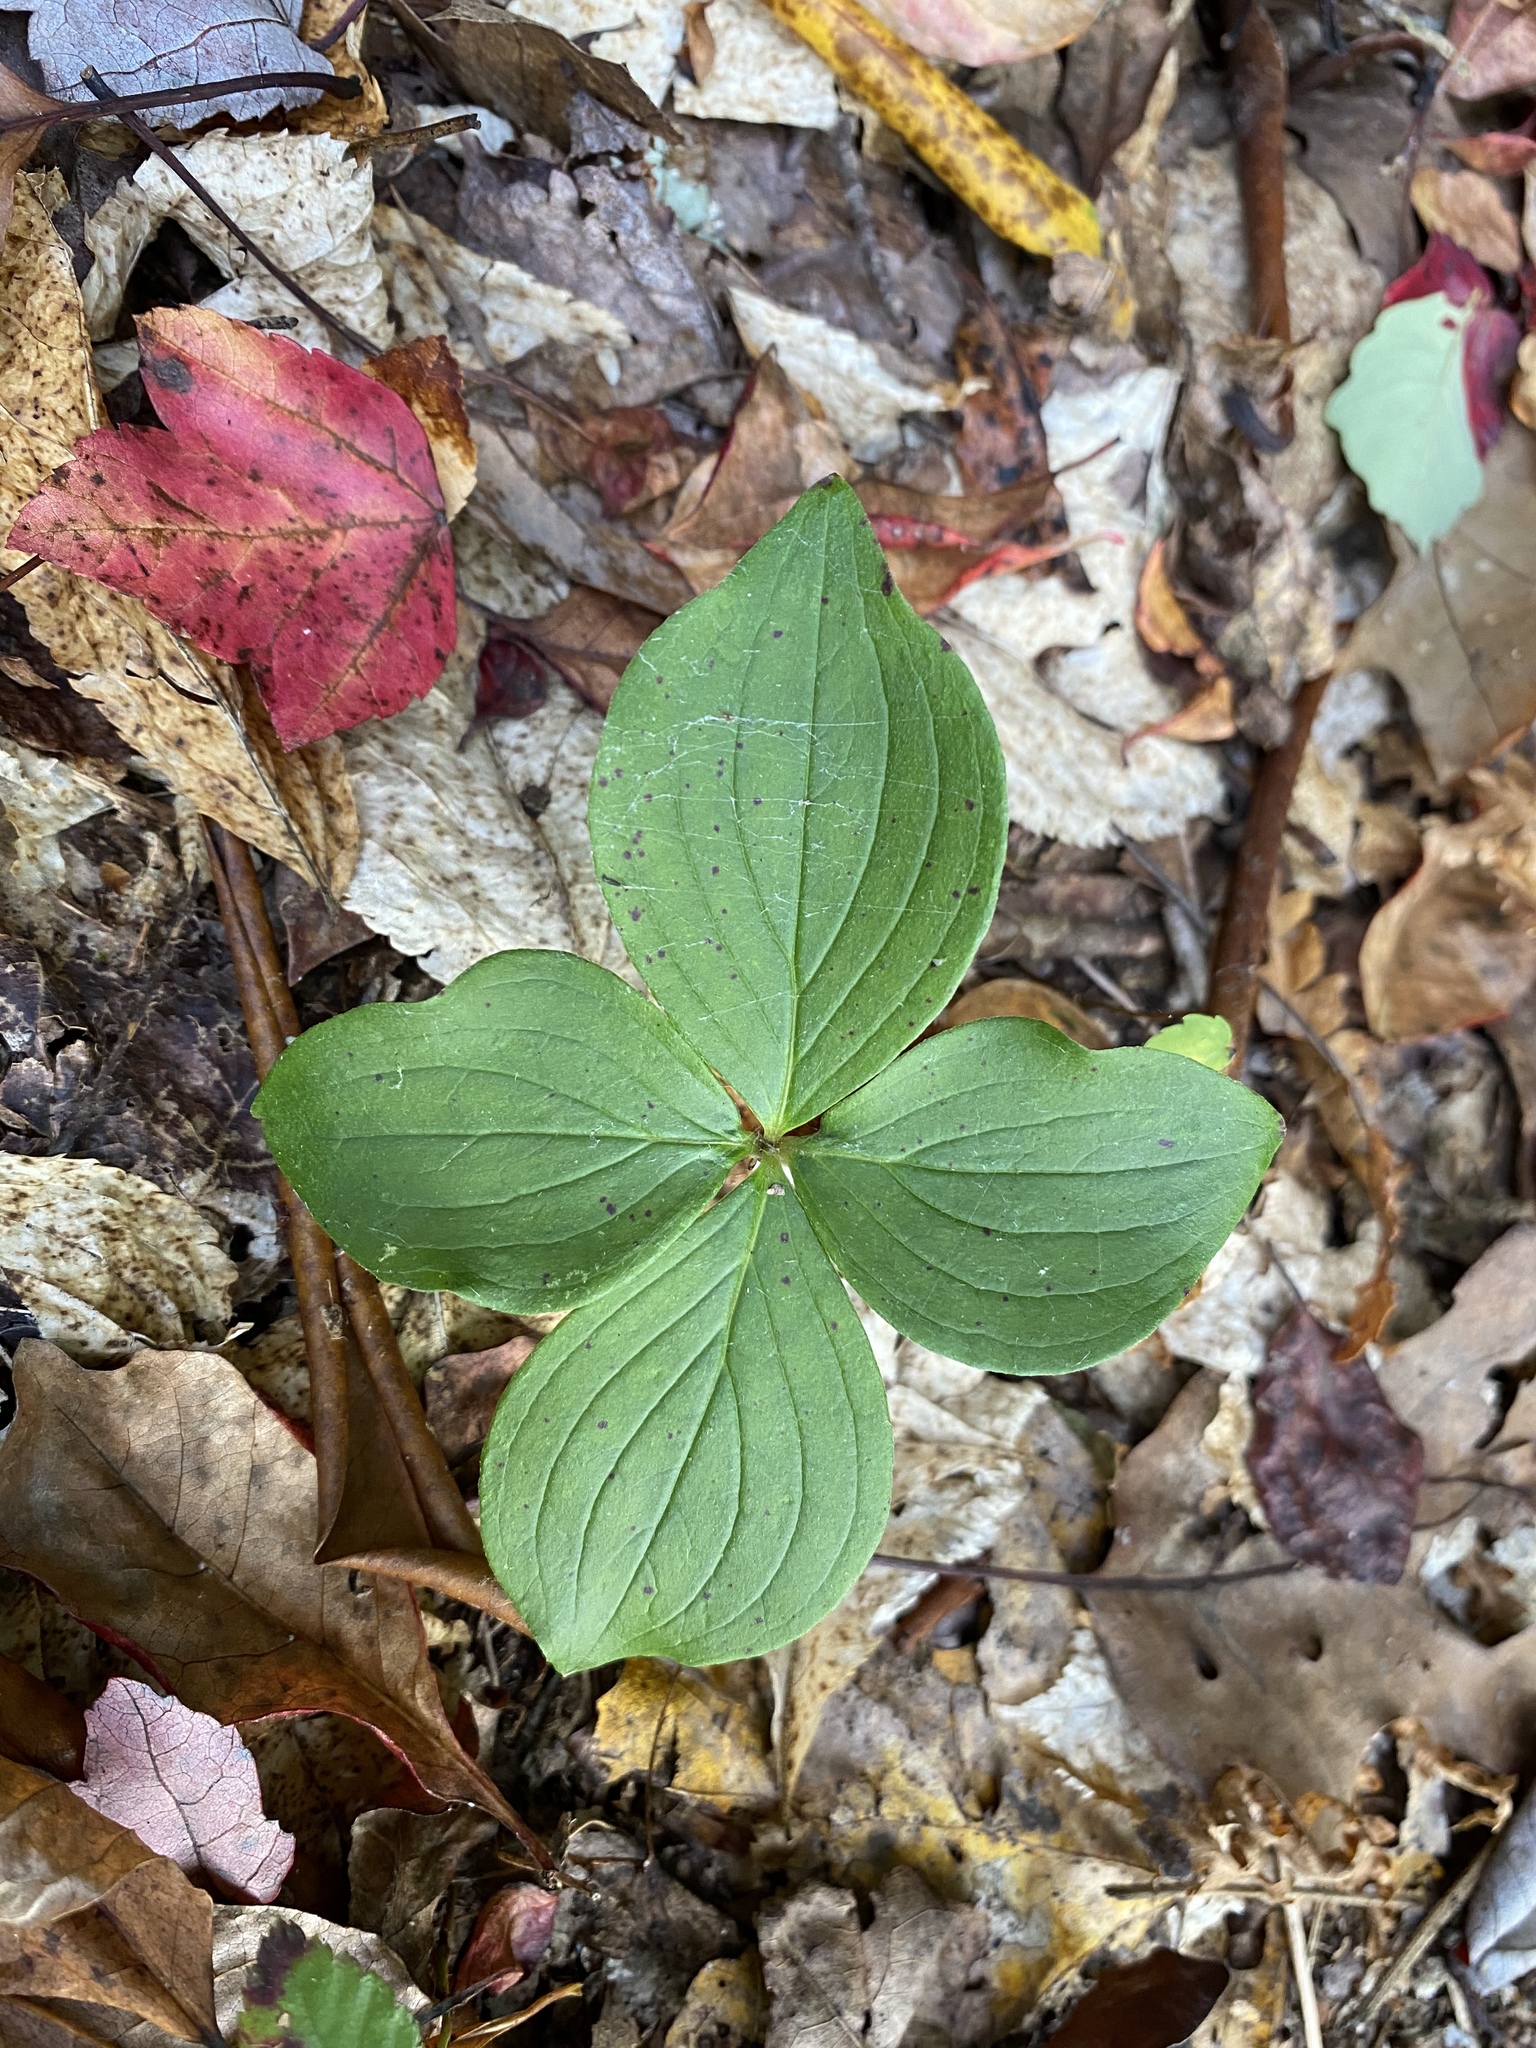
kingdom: Plantae
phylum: Tracheophyta
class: Magnoliopsida
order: Cornales
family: Cornaceae
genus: Cornus
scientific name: Cornus canadensis
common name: Creeping dogwood
